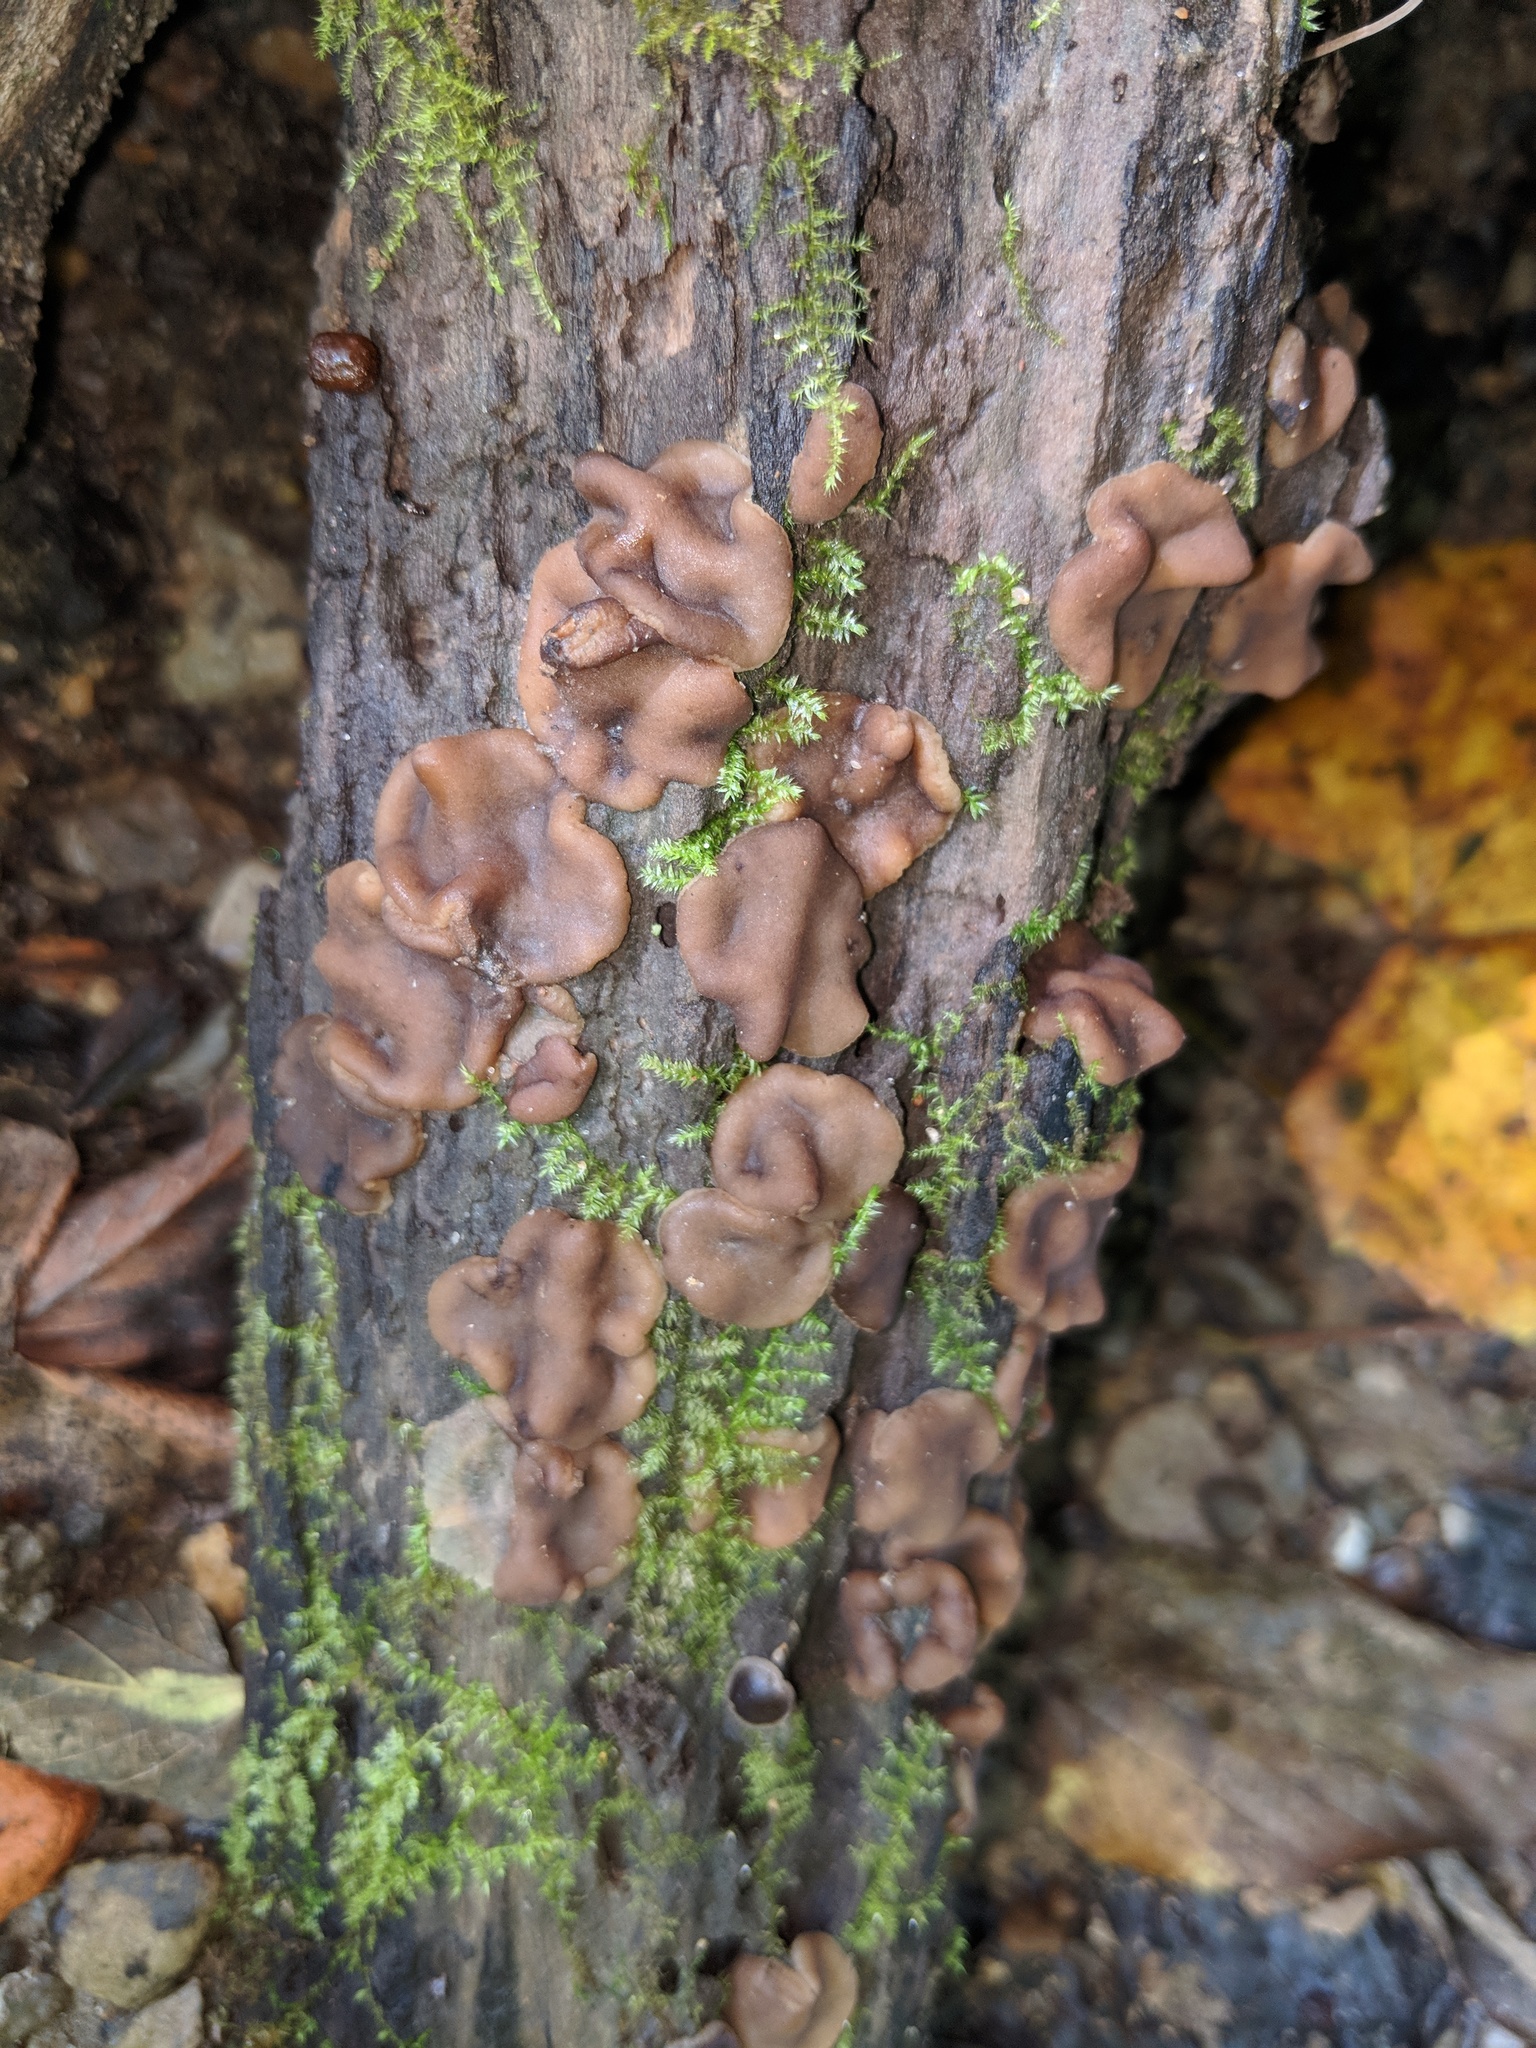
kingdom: Fungi
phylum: Ascomycota
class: Pezizomycetes
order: Pezizales
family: Pezizaceae
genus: Pachyella
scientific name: Pachyella clypeata
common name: Copper penny fungus
